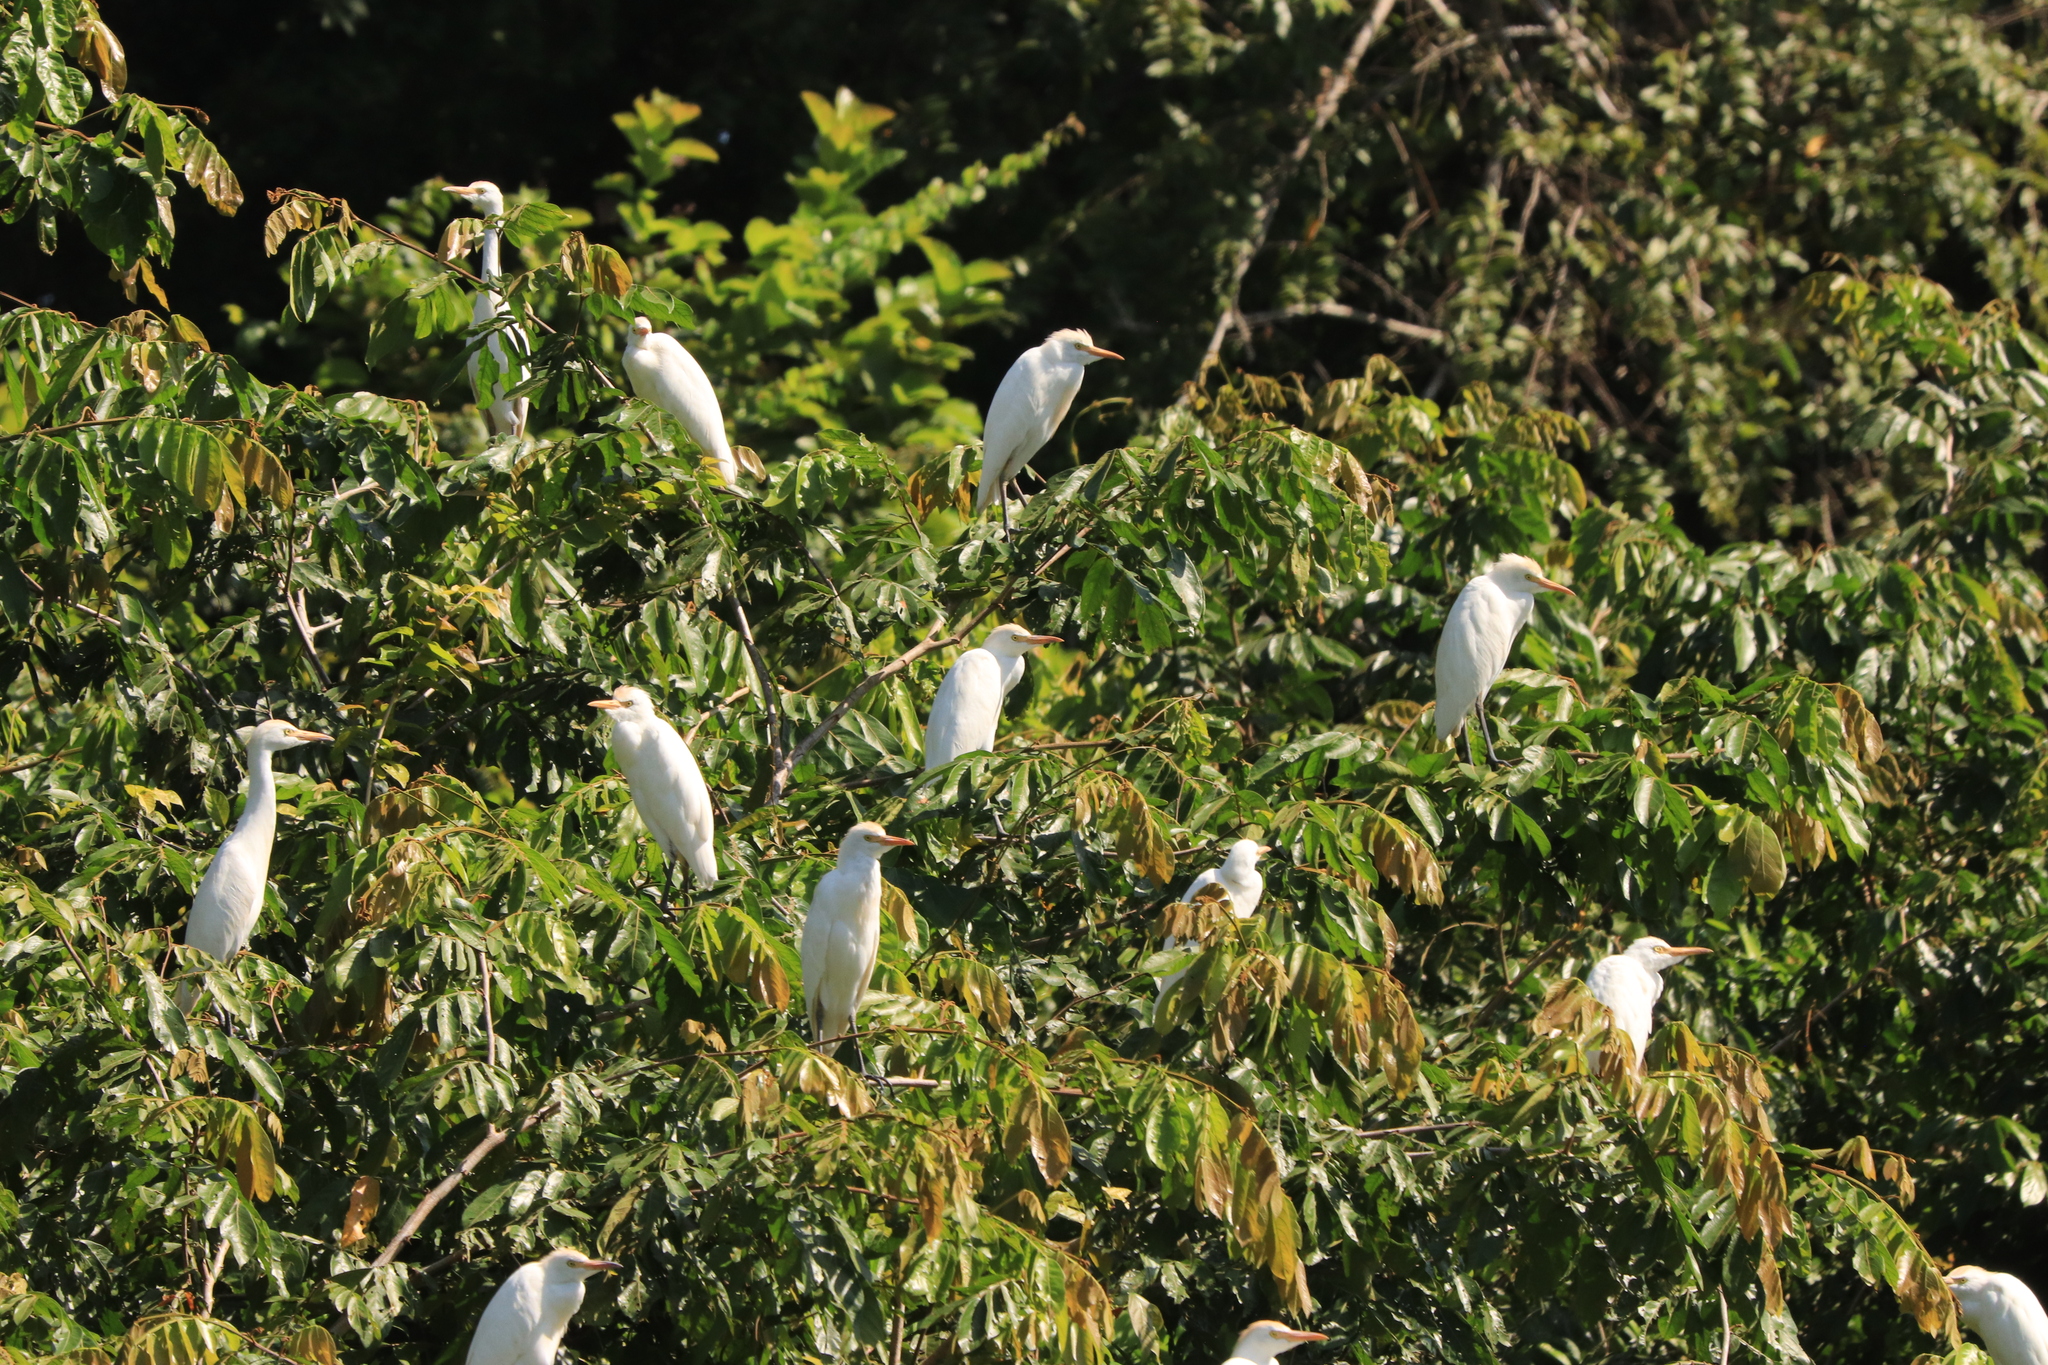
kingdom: Animalia
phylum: Chordata
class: Aves
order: Pelecaniformes
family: Ardeidae
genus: Bubulcus
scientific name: Bubulcus ibis
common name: Cattle egret
